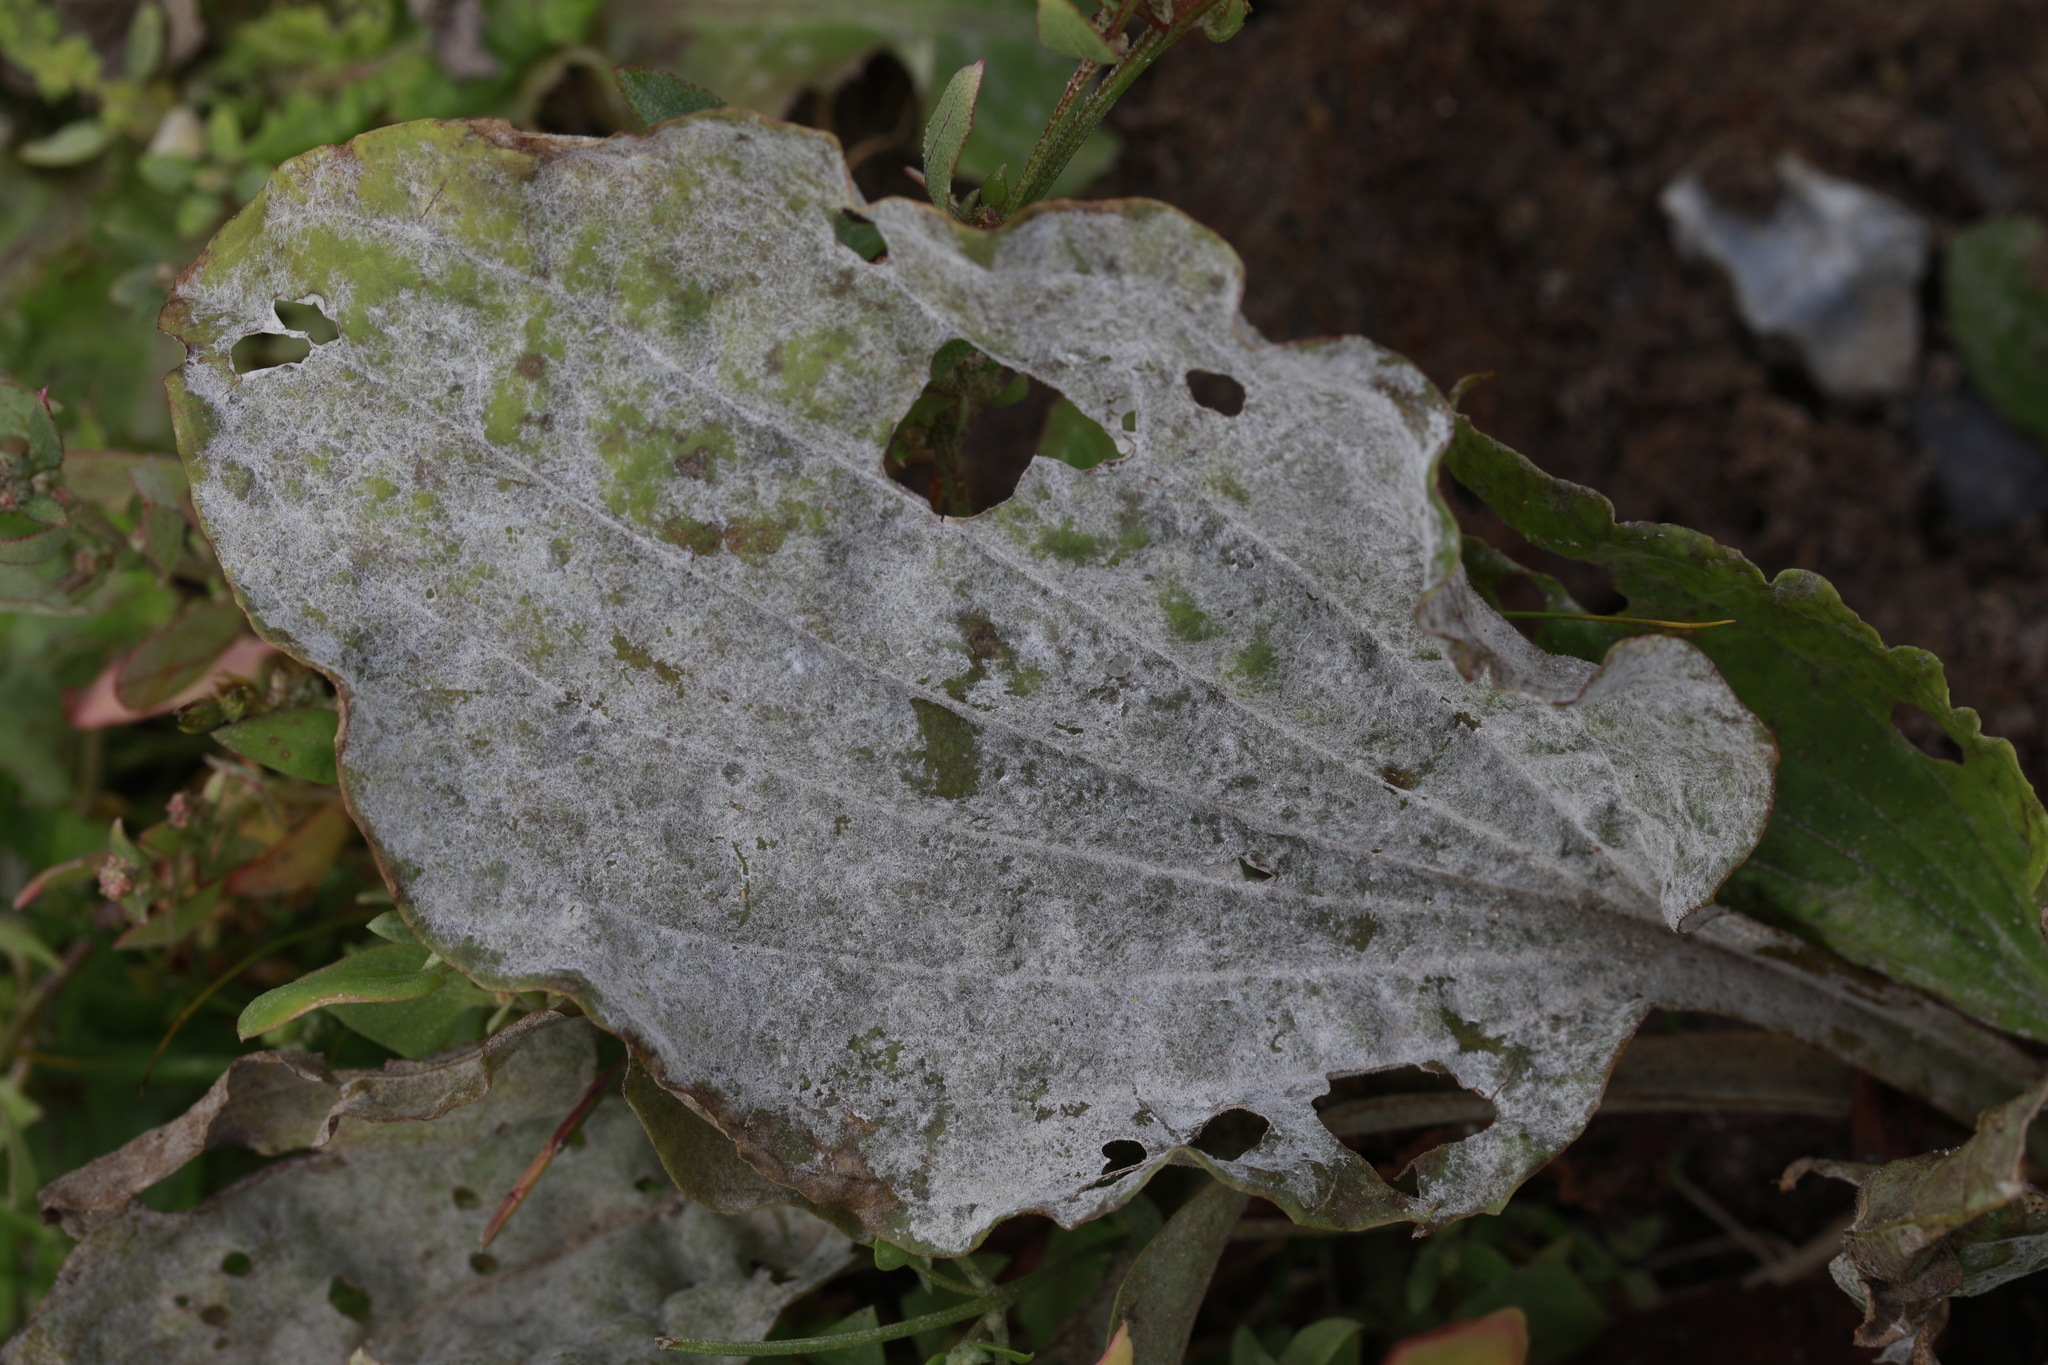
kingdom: Plantae
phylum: Tracheophyta
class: Magnoliopsida
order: Lamiales
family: Plantaginaceae
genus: Plantago
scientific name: Plantago major
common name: Common plantain
